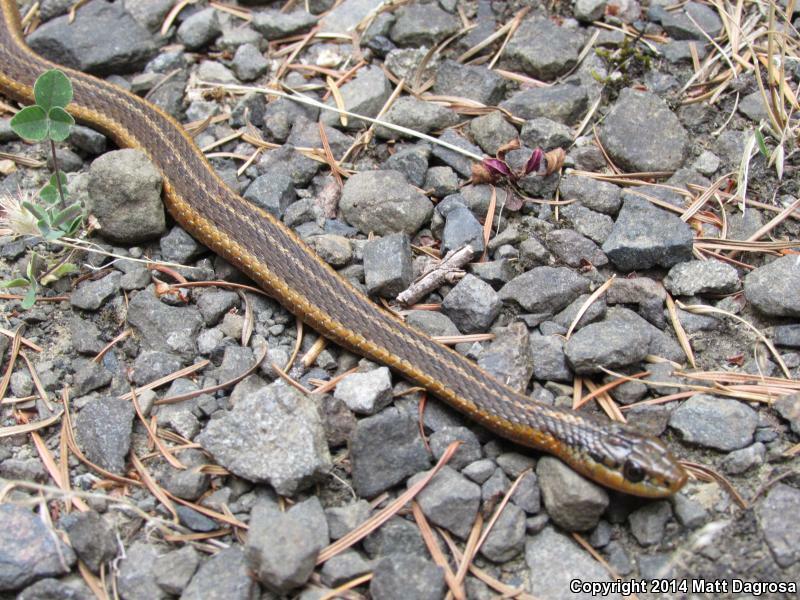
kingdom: Animalia
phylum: Chordata
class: Squamata
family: Colubridae
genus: Thamnophis
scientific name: Thamnophis ordinoides
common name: Northwestern garter snake
